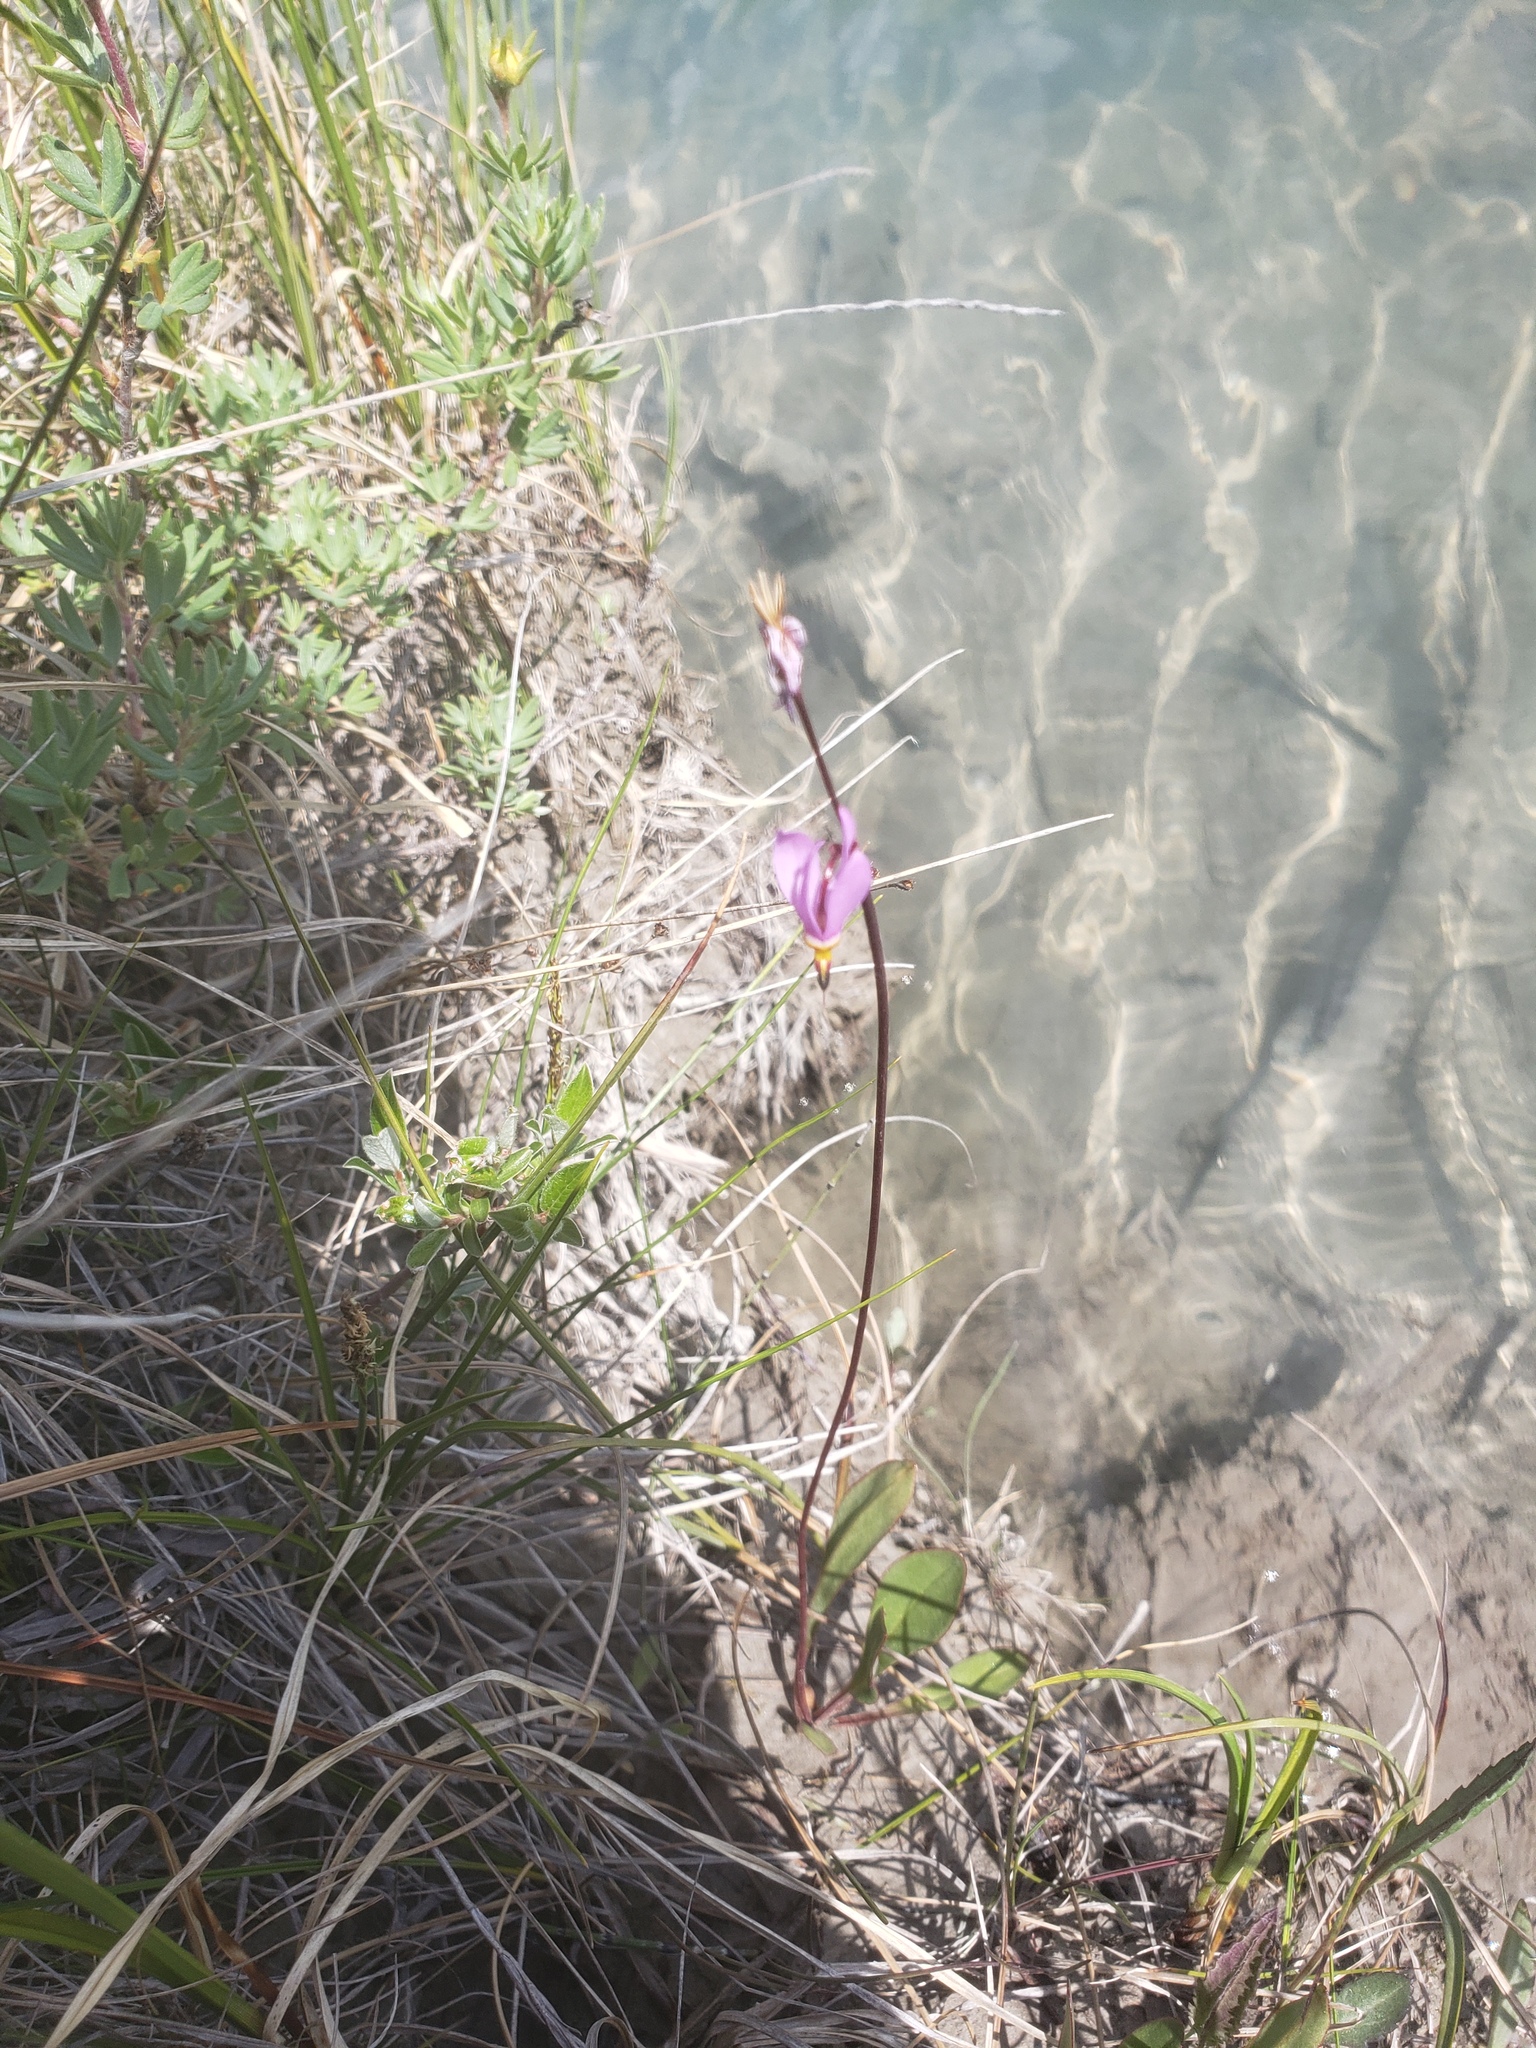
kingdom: Plantae
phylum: Tracheophyta
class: Magnoliopsida
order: Ericales
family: Primulaceae
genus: Dodecatheon
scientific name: Dodecatheon pulchellum
